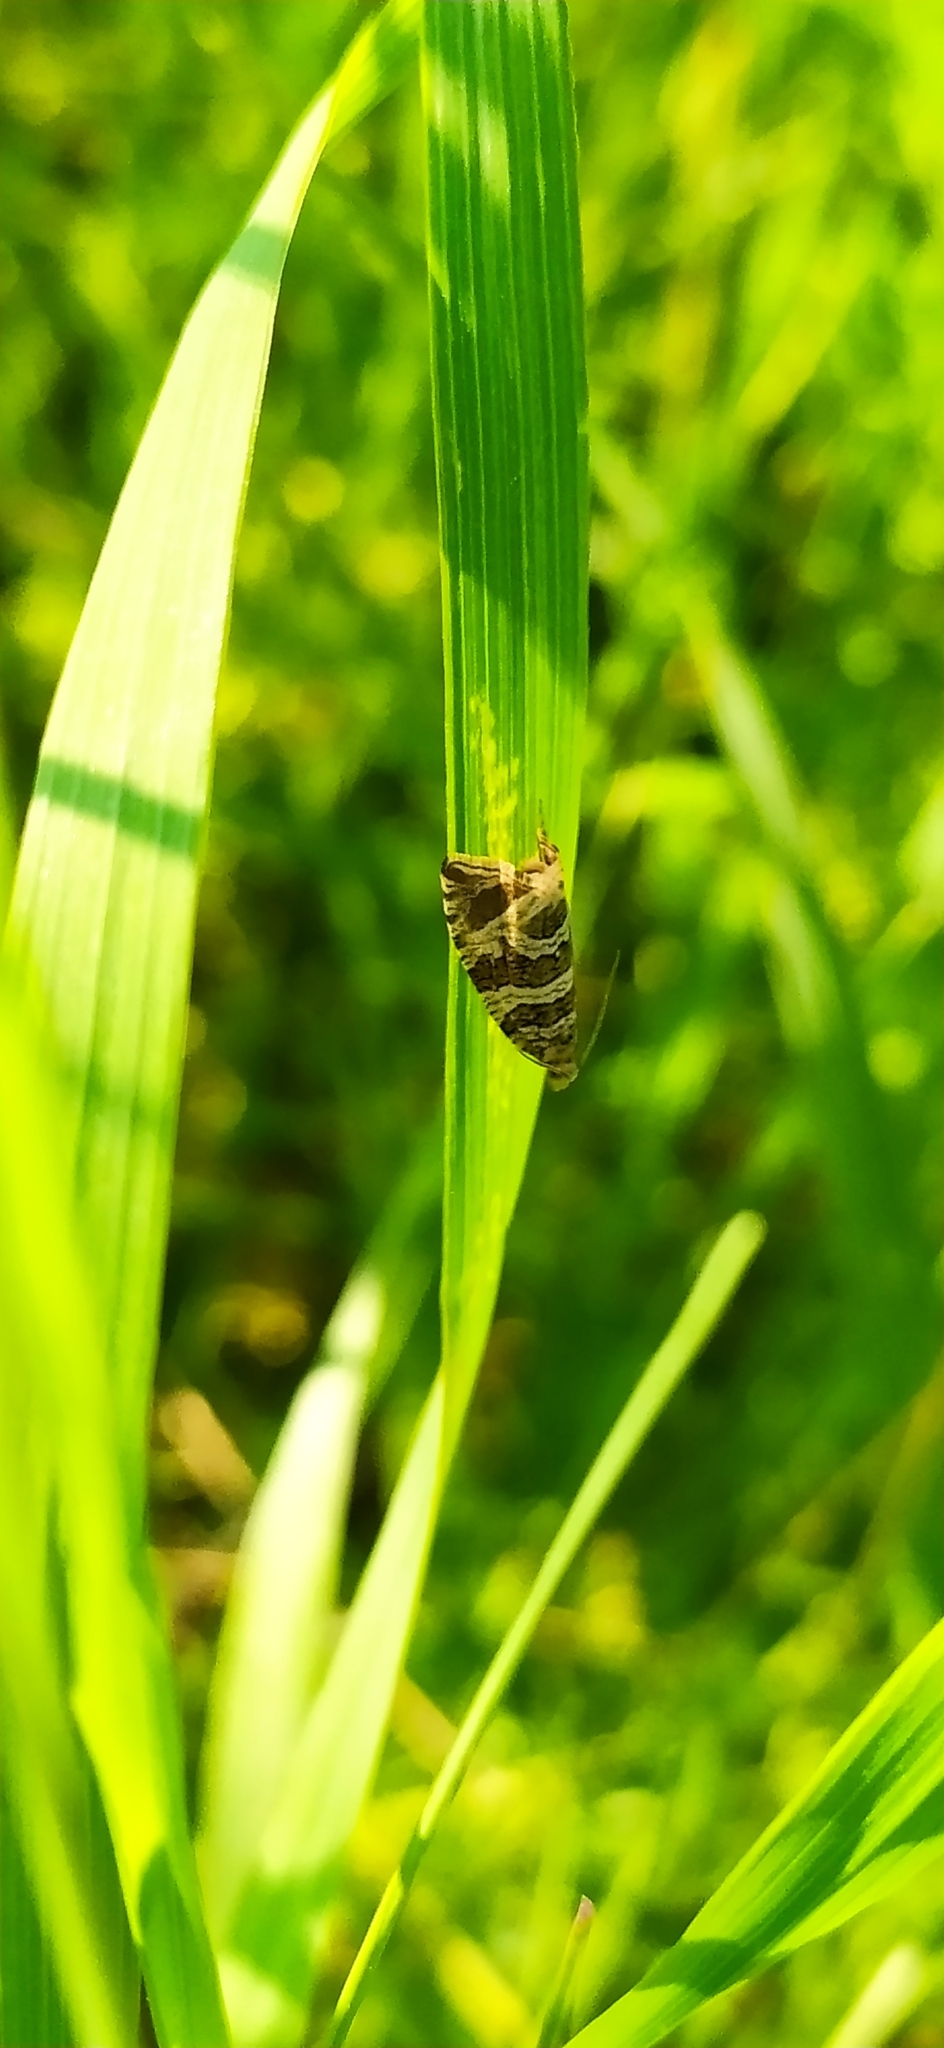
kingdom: Animalia
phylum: Arthropoda
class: Insecta
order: Lepidoptera
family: Tortricidae
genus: Syricoris
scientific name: Syricoris rivulana
